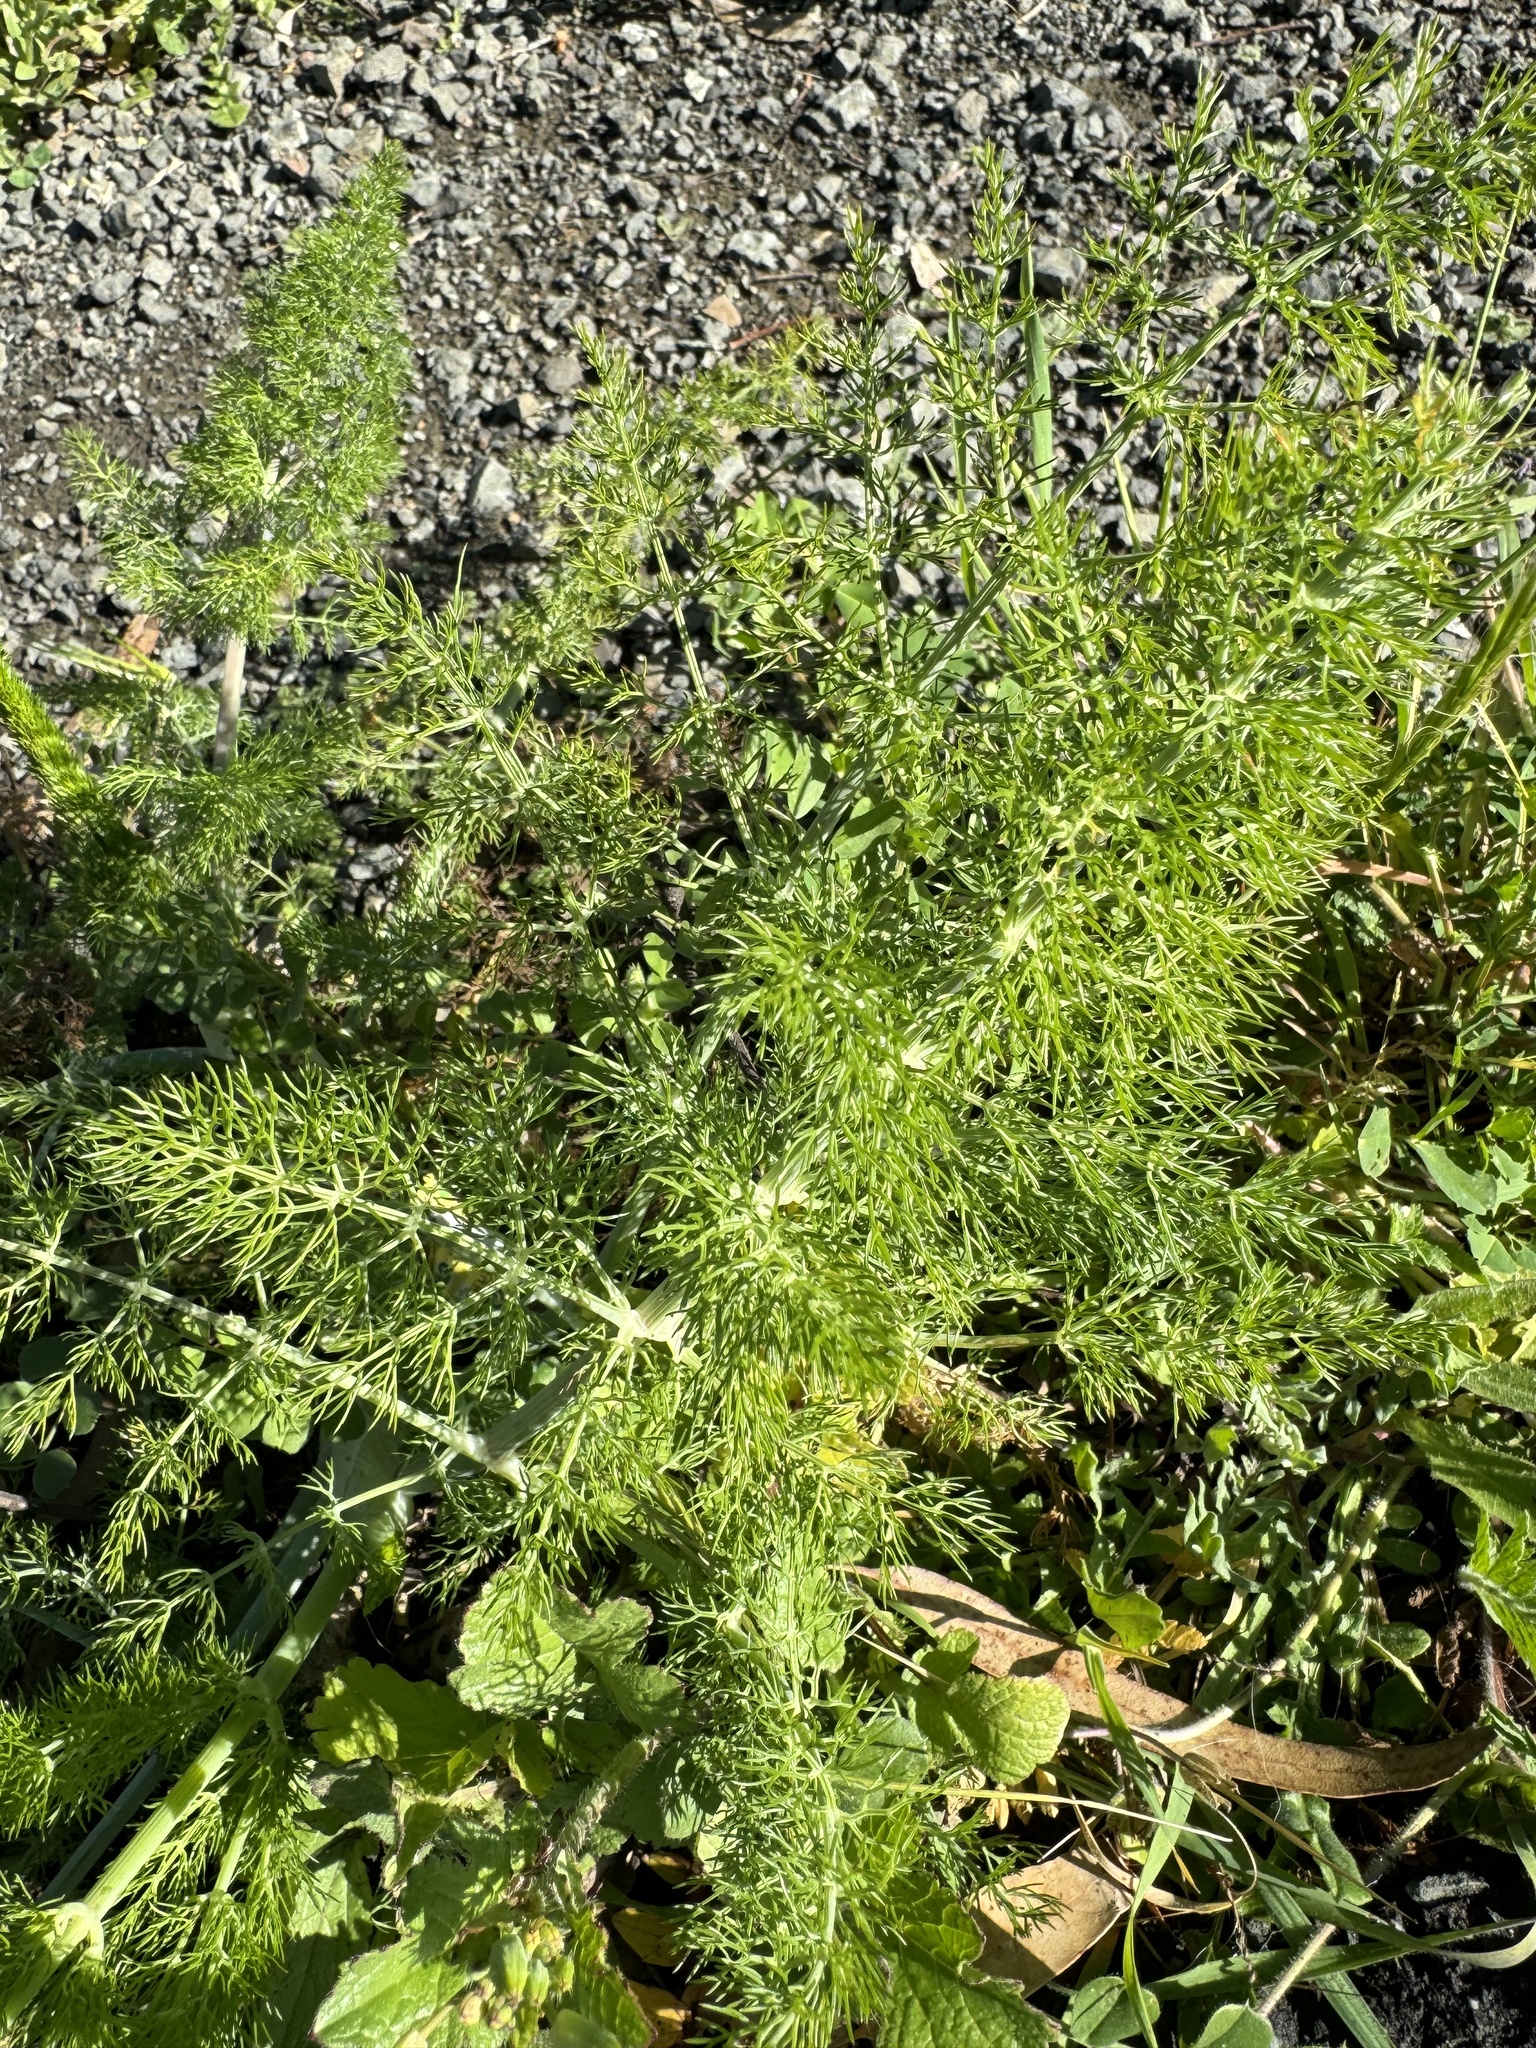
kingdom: Plantae
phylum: Tracheophyta
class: Magnoliopsida
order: Apiales
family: Apiaceae
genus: Foeniculum
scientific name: Foeniculum vulgare
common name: Fennel
